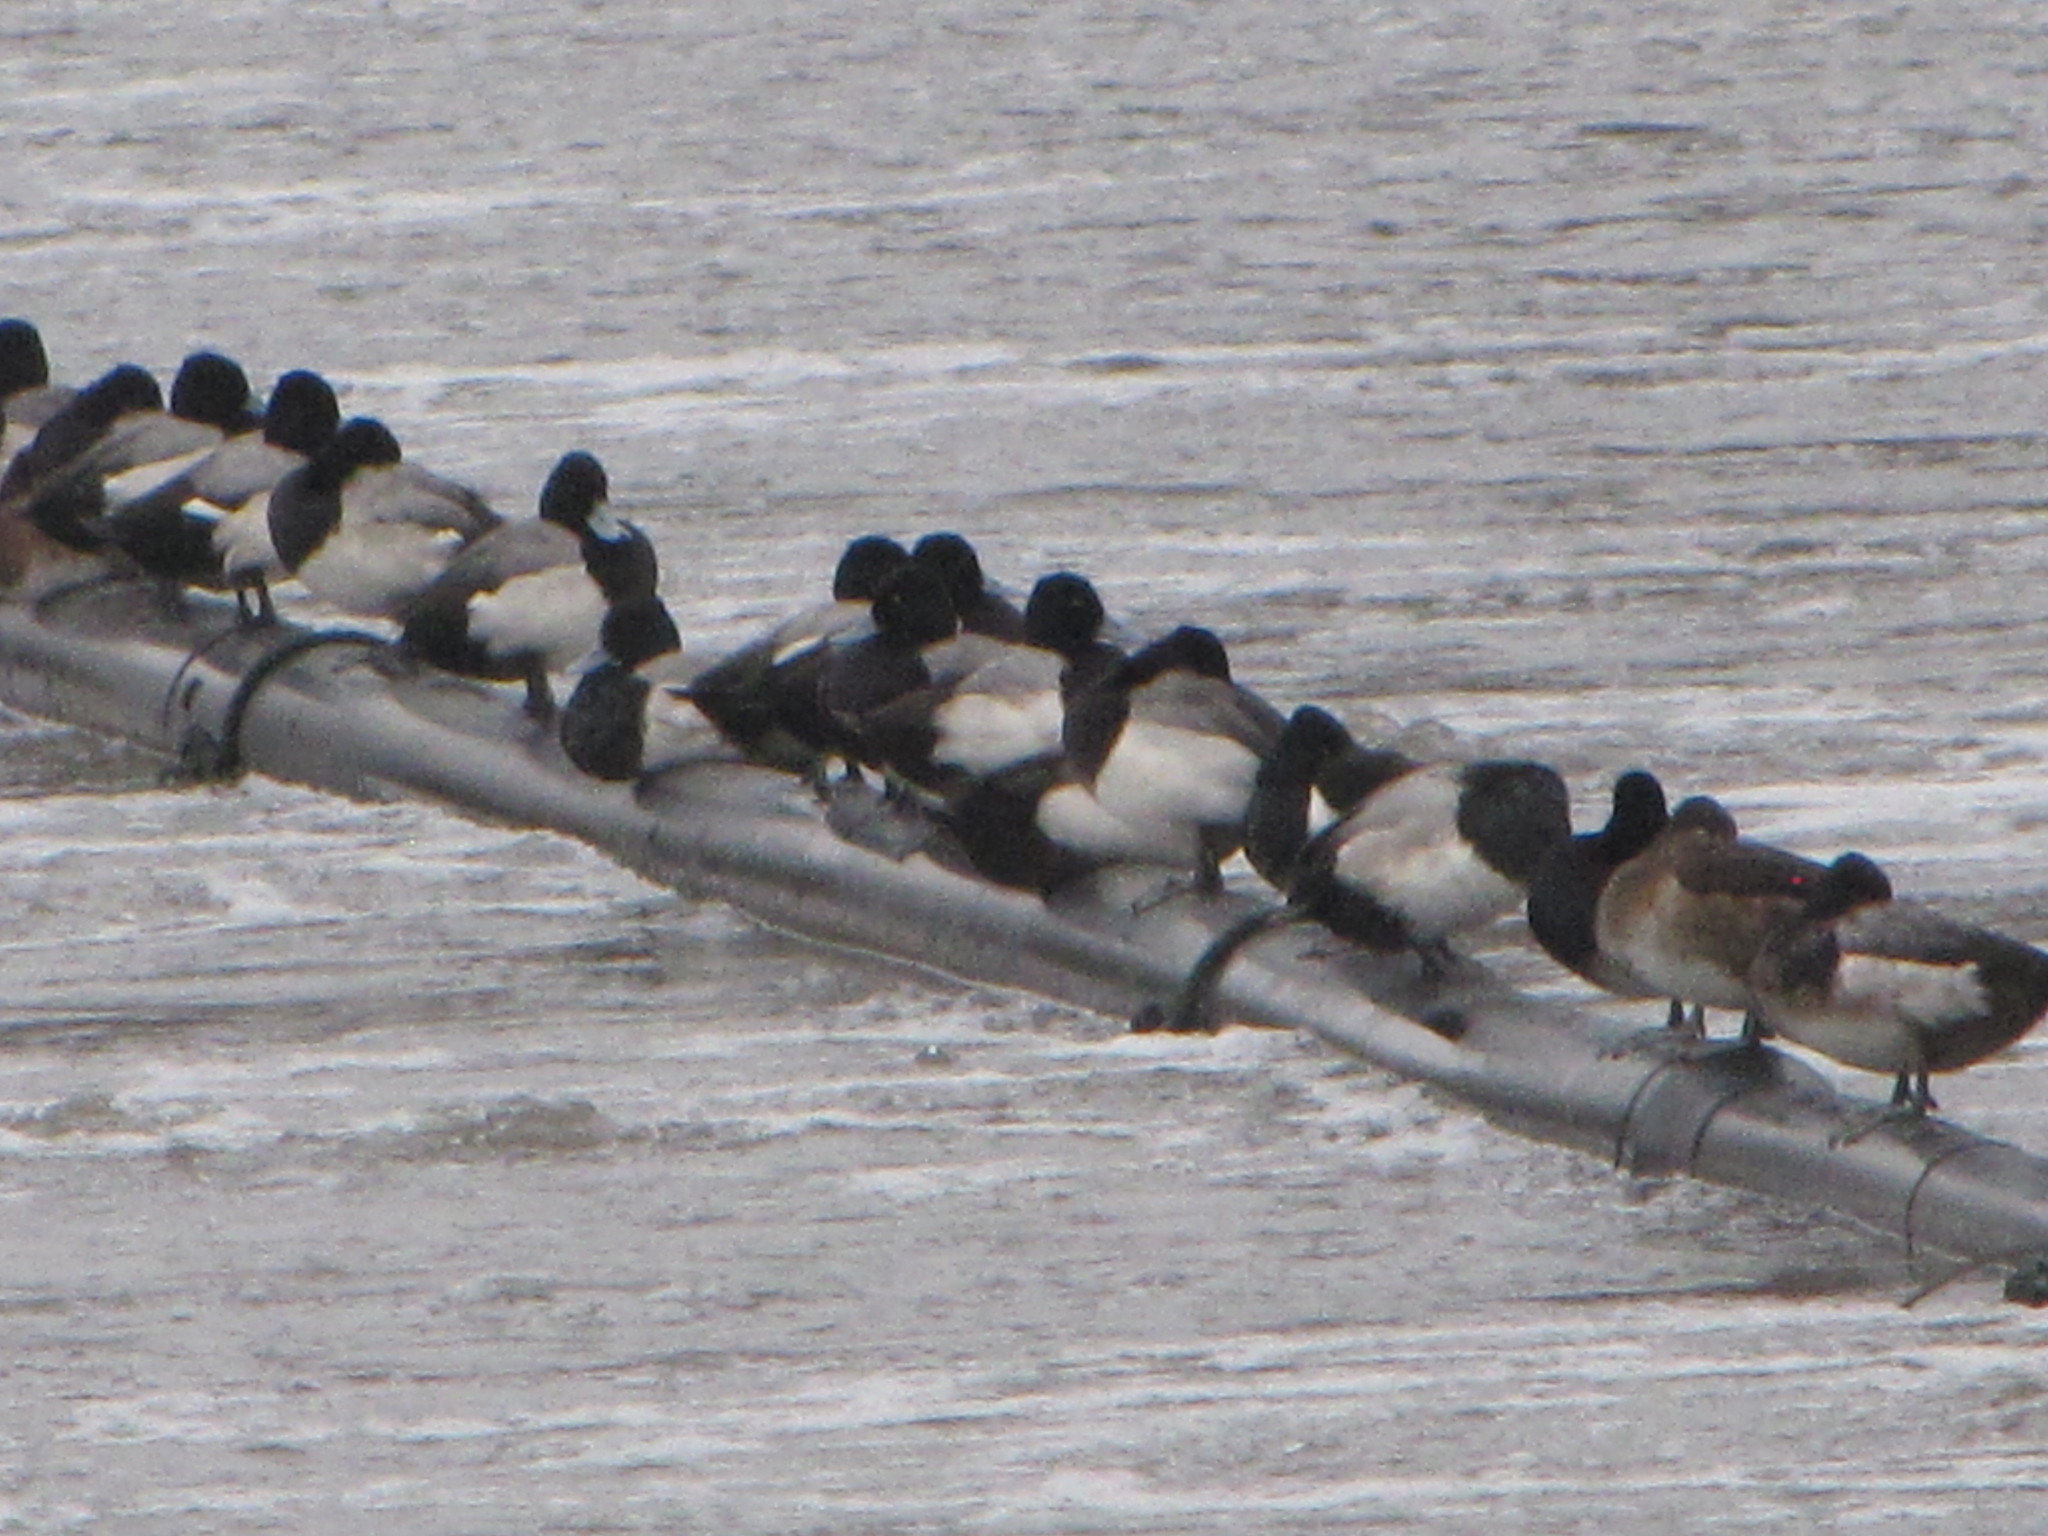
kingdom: Animalia
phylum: Chordata
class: Aves
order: Anseriformes
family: Anatidae
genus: Aythya
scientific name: Aythya affinis
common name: Lesser scaup
